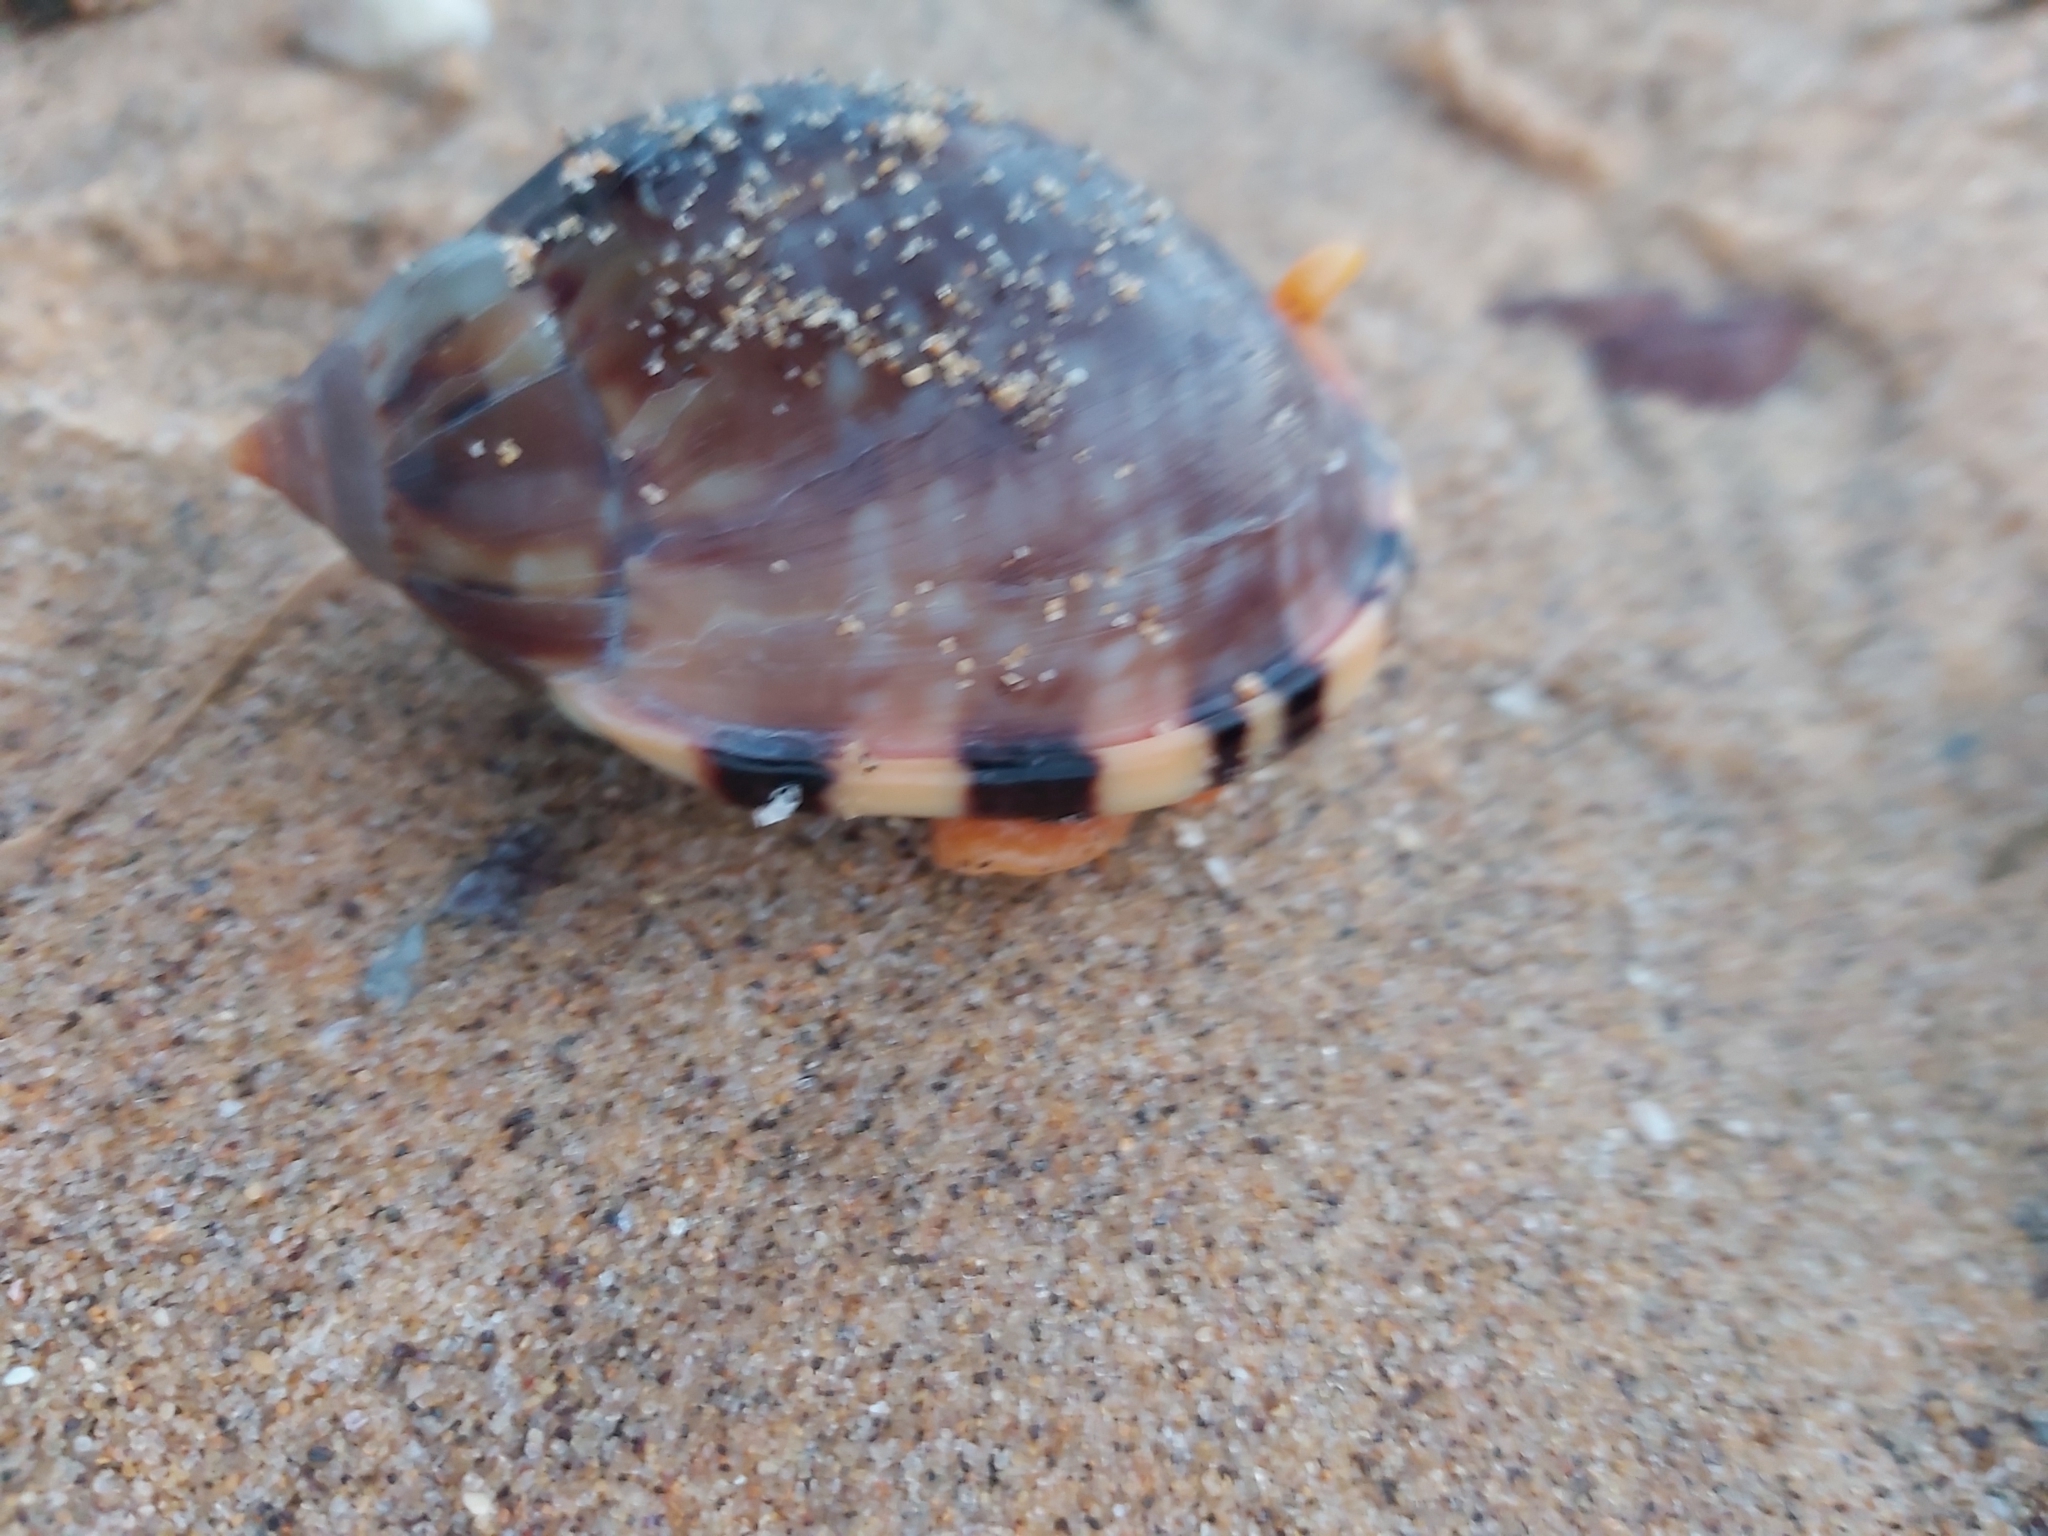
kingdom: Animalia
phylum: Mollusca
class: Gastropoda
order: Littorinimorpha
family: Cassidae
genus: Semicassis
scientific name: Semicassis labiata
